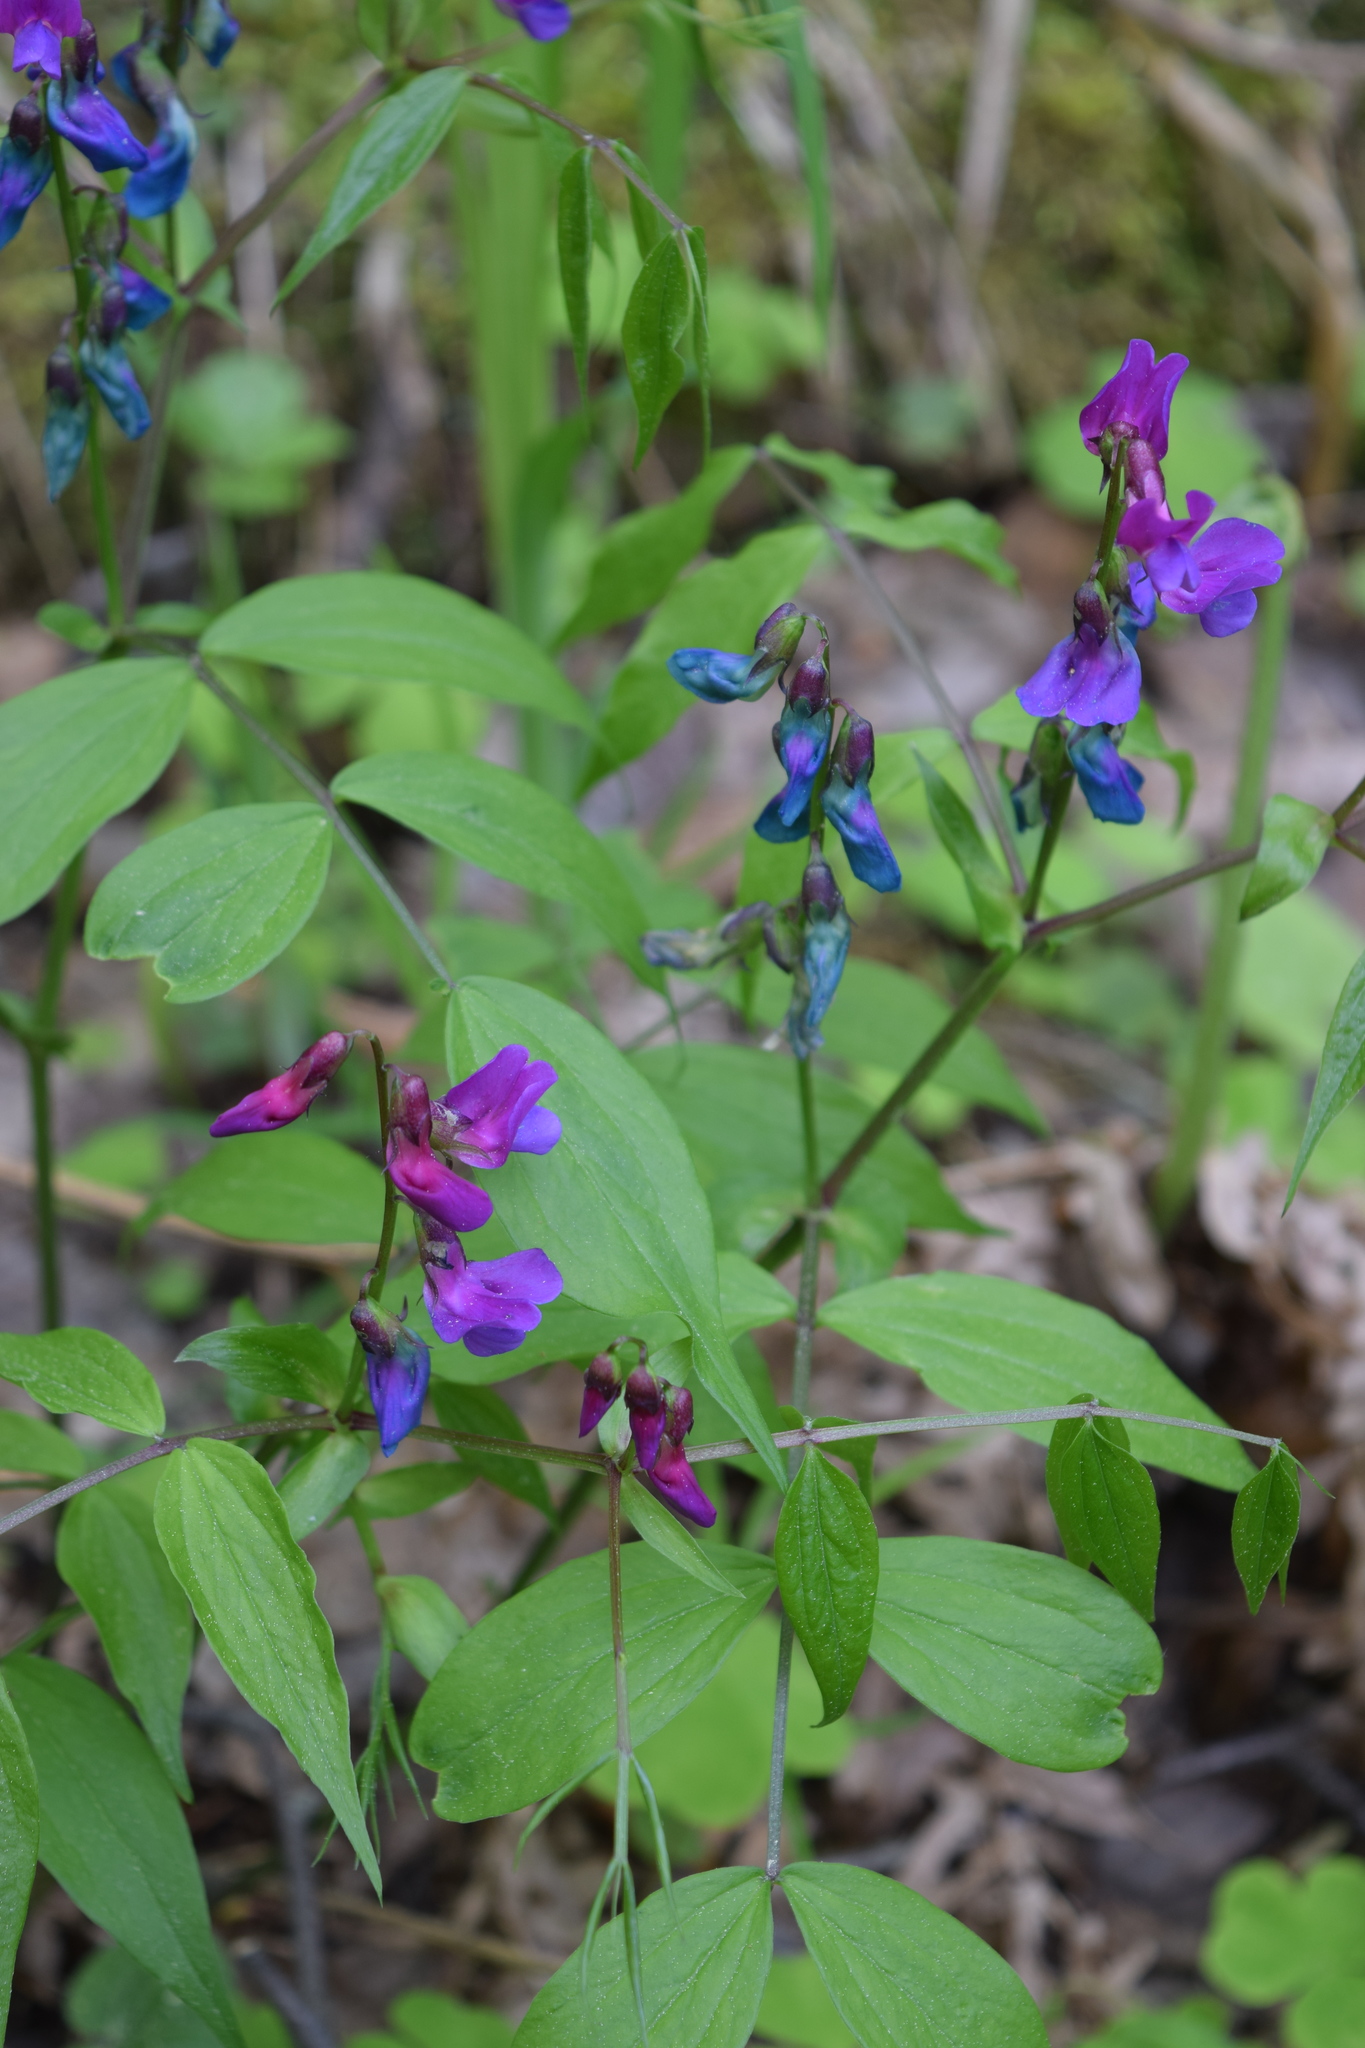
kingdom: Plantae
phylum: Tracheophyta
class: Magnoliopsida
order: Fabales
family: Fabaceae
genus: Lathyrus
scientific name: Lathyrus vernus
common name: Spring pea
